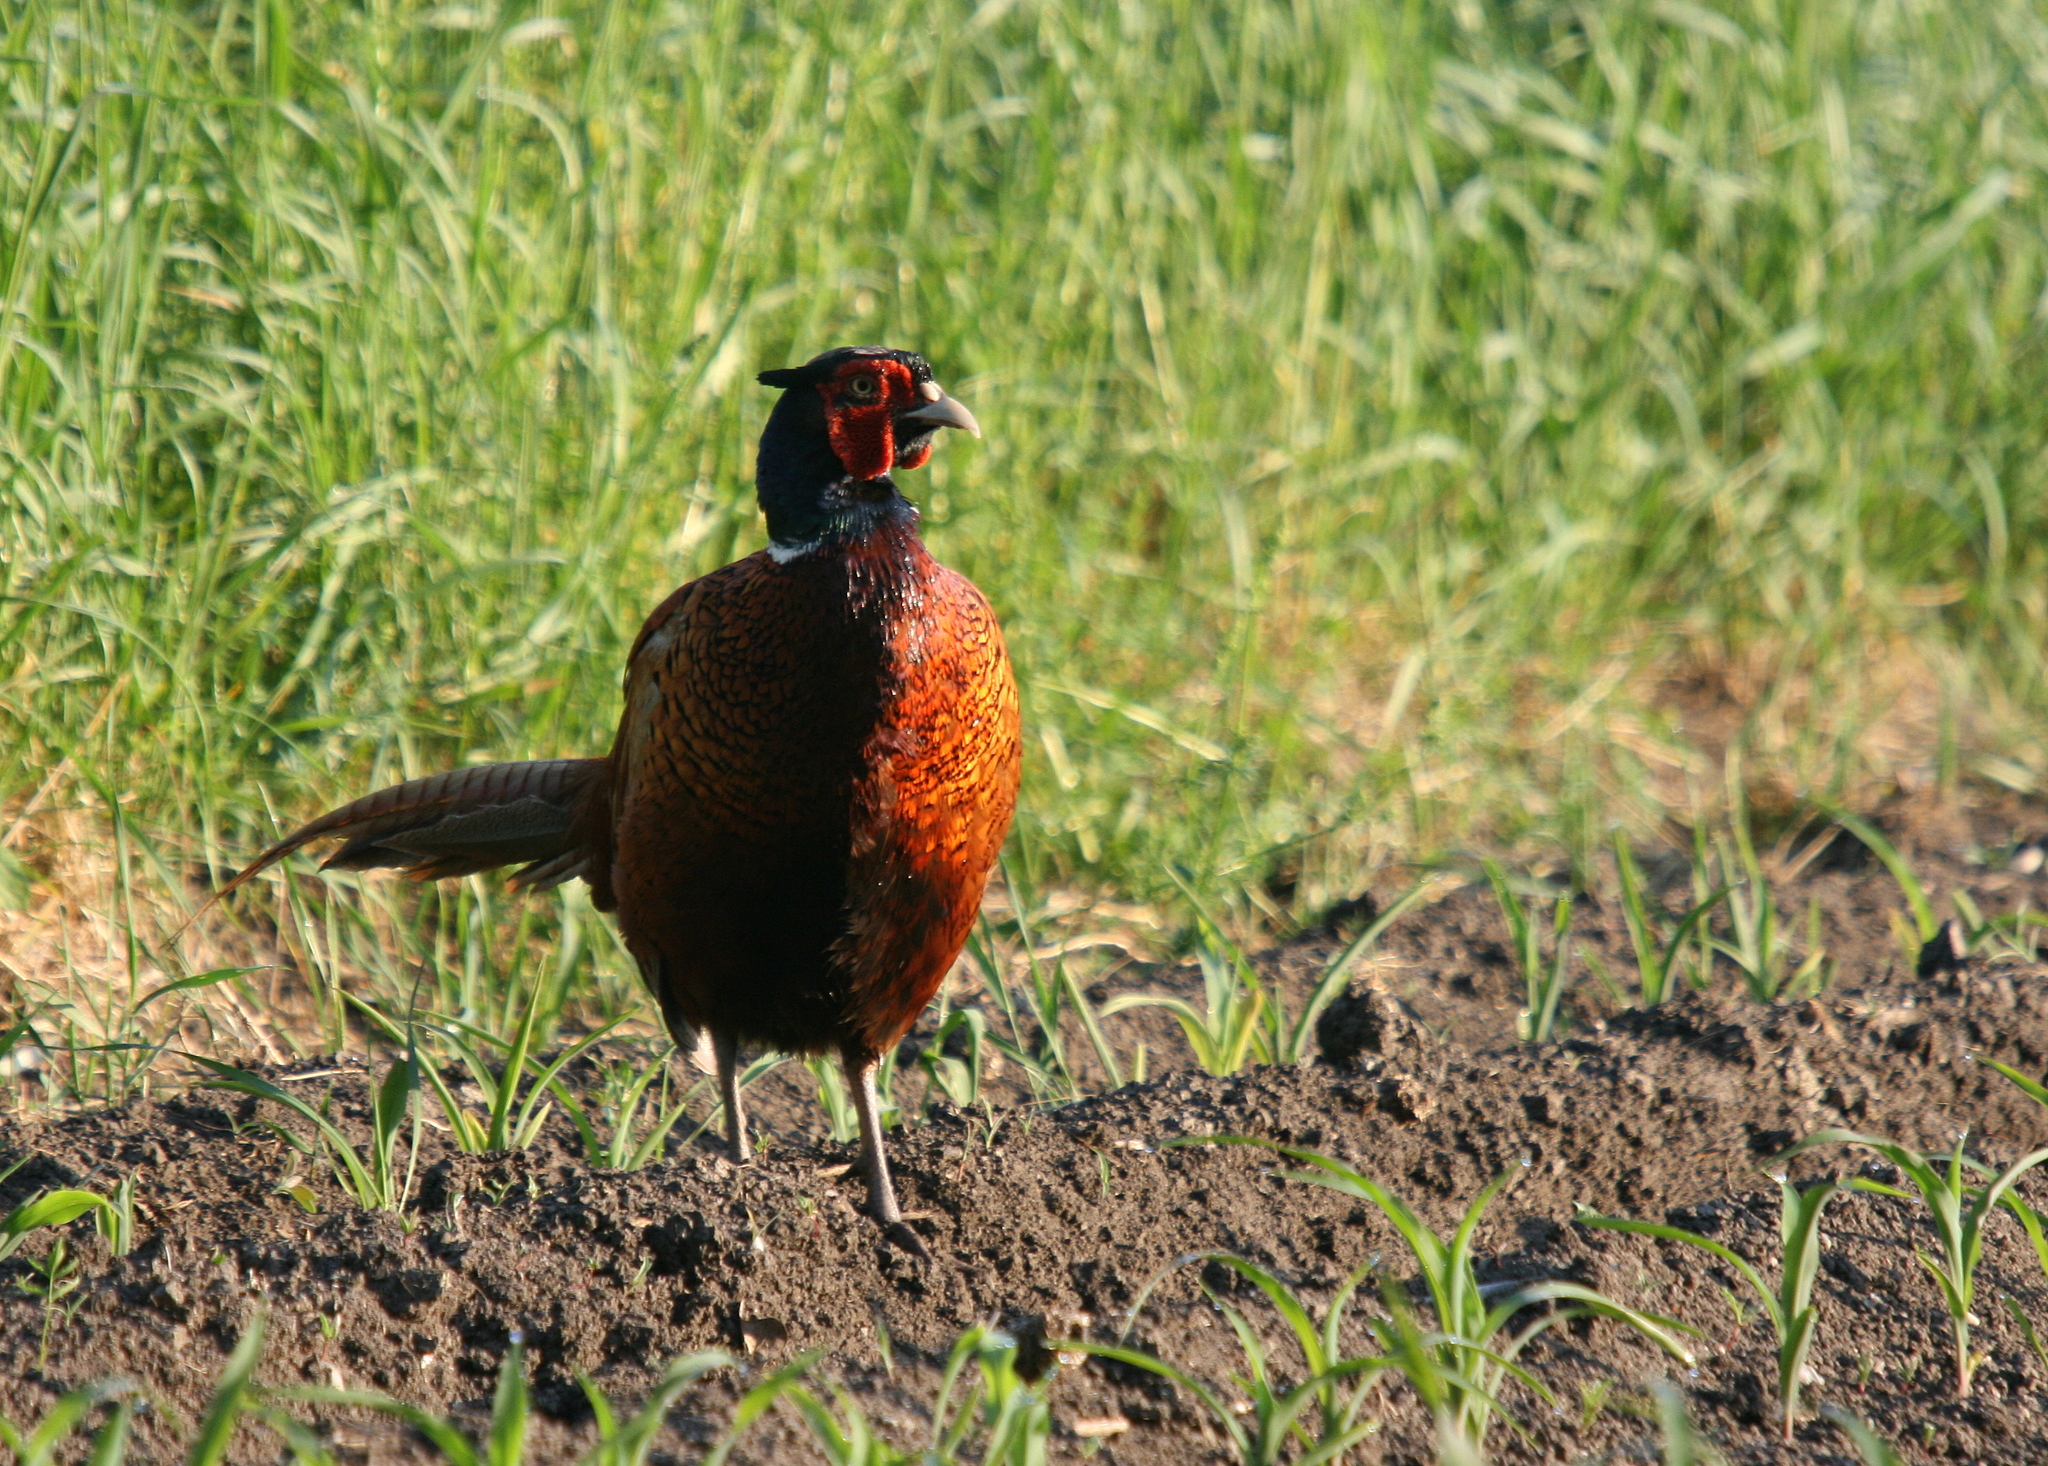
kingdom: Animalia
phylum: Chordata
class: Aves
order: Galliformes
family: Phasianidae
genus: Phasianus
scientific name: Phasianus colchicus
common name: Common pheasant
